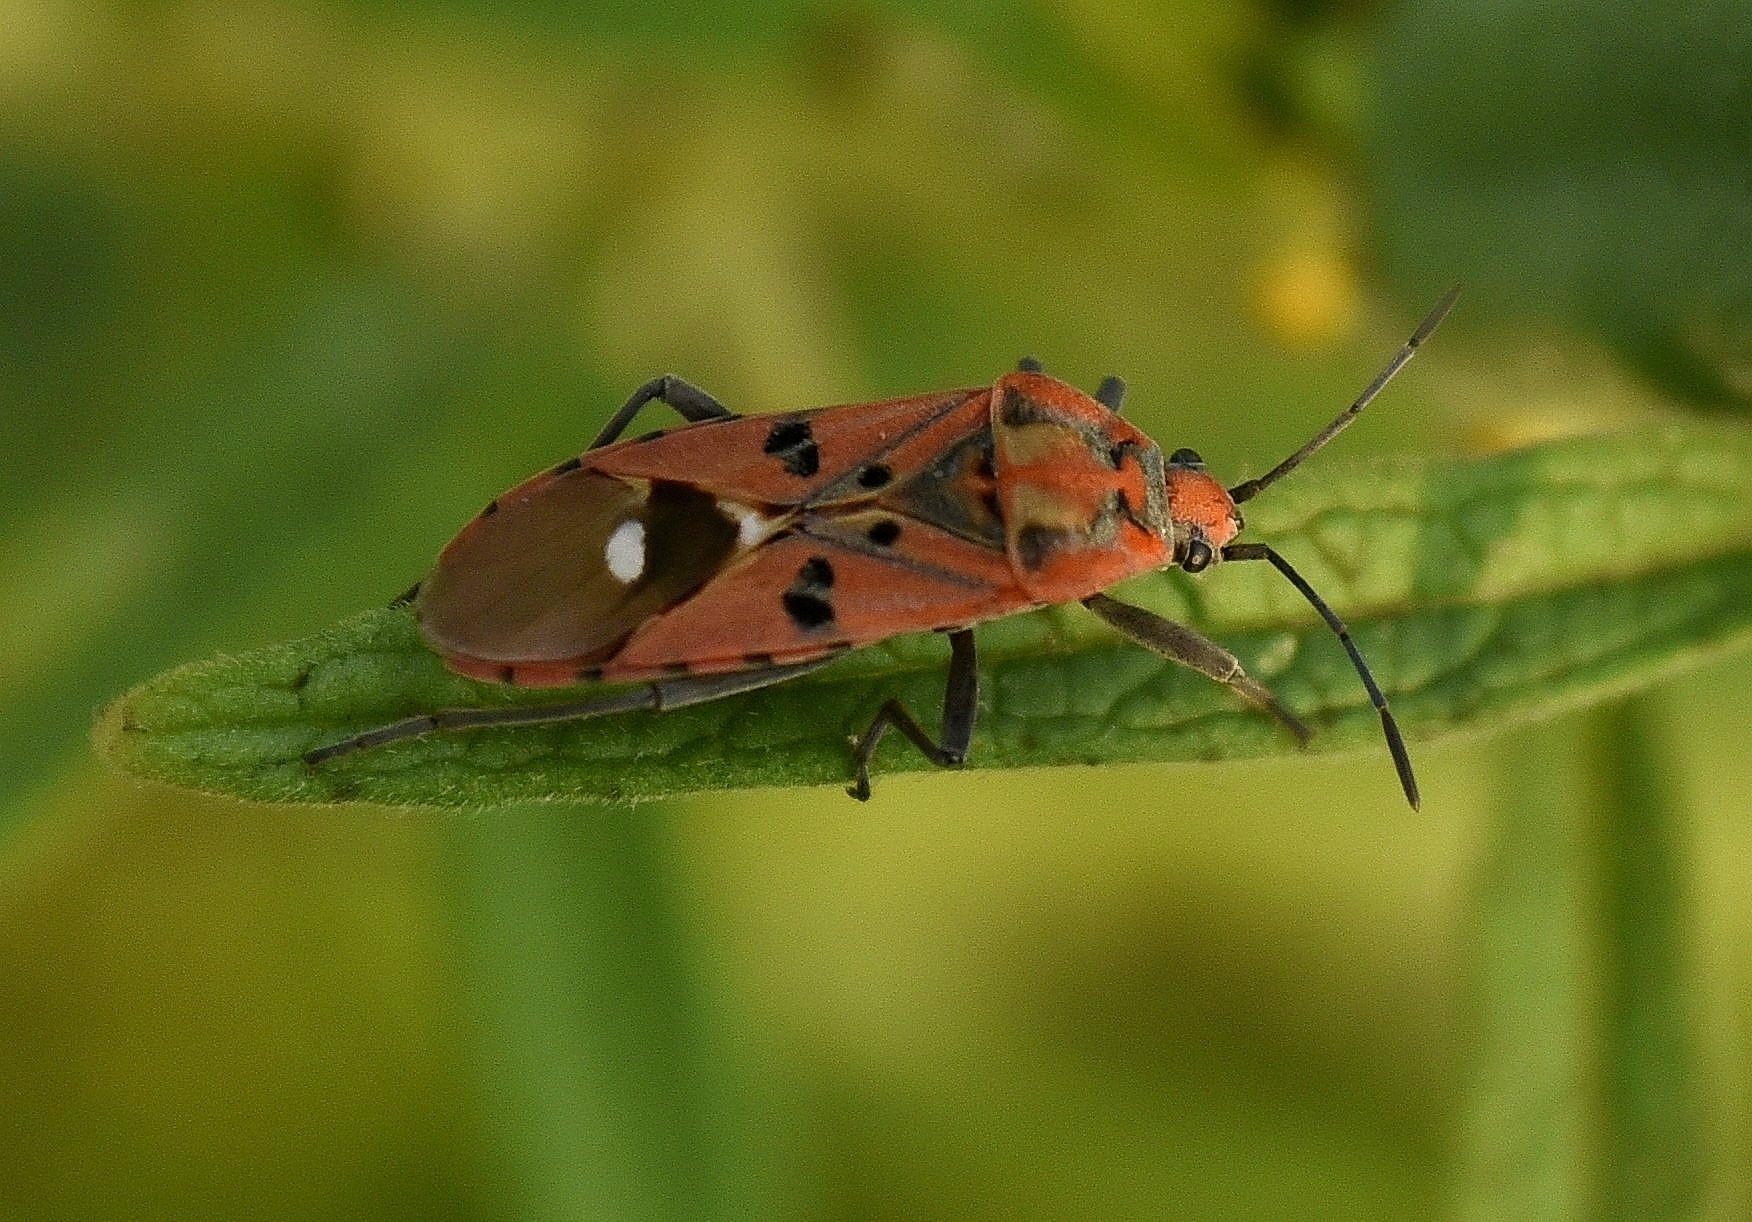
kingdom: Animalia
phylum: Arthropoda
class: Insecta
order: Hemiptera
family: Lygaeidae
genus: Spilostethus
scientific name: Spilostethus pandurus
